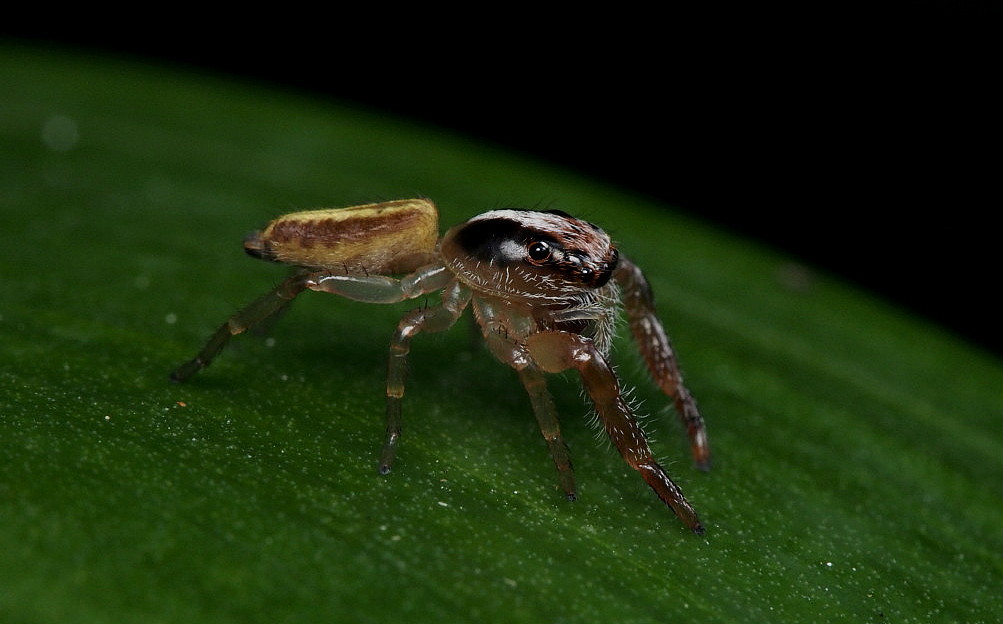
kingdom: Animalia
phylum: Arthropoda
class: Arachnida
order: Araneae
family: Salticidae
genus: Trite
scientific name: Trite planiceps
